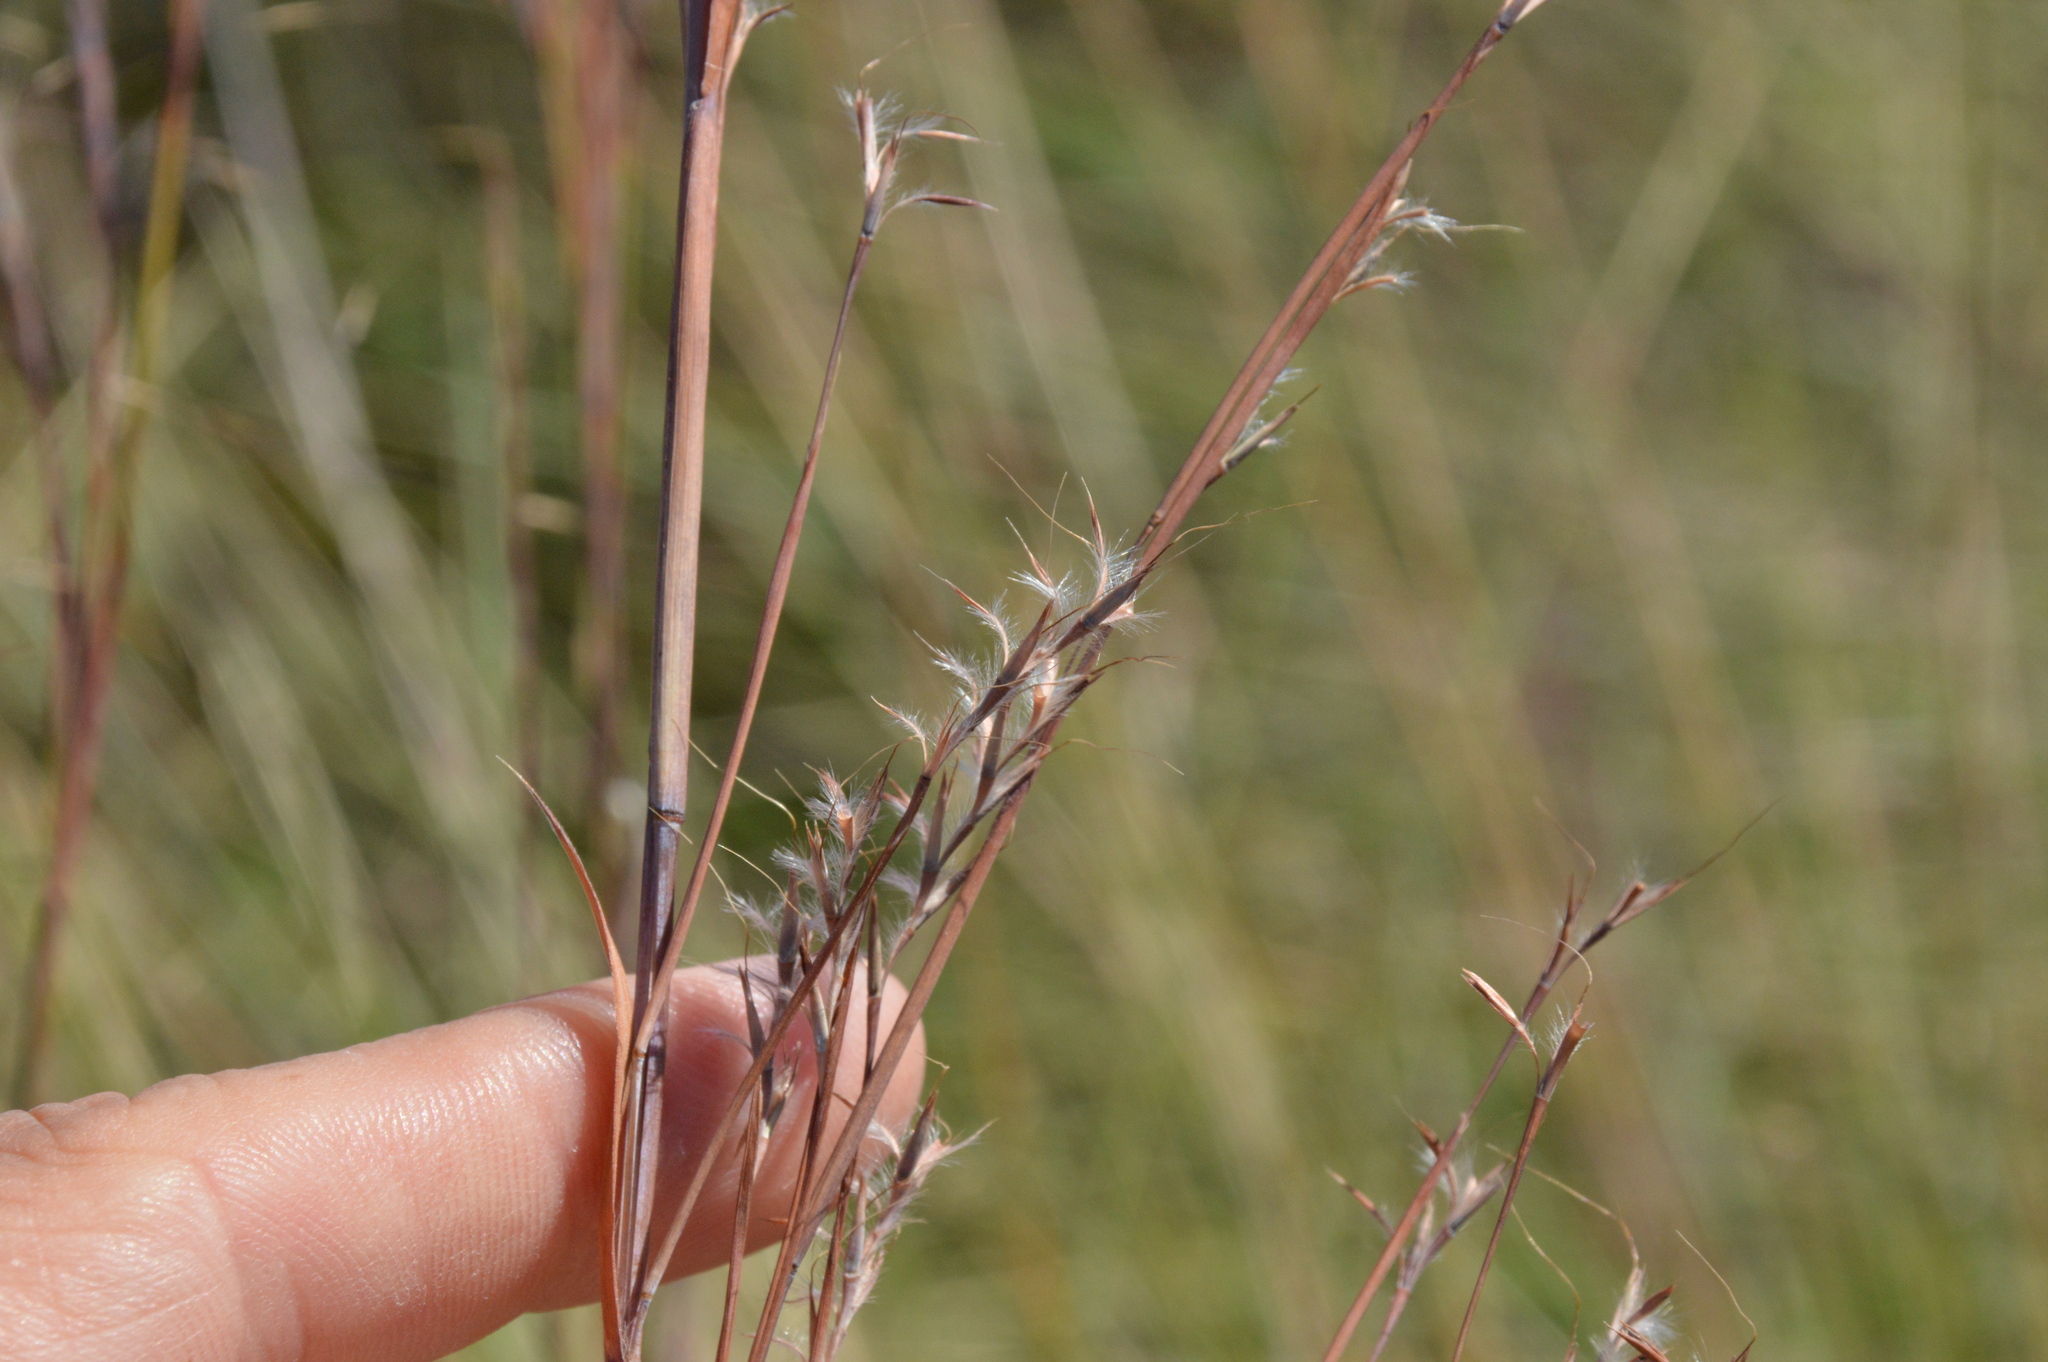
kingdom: Plantae
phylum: Tracheophyta
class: Liliopsida
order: Poales
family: Poaceae
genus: Schizachyrium
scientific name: Schizachyrium scoparium
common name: Little bluestem
